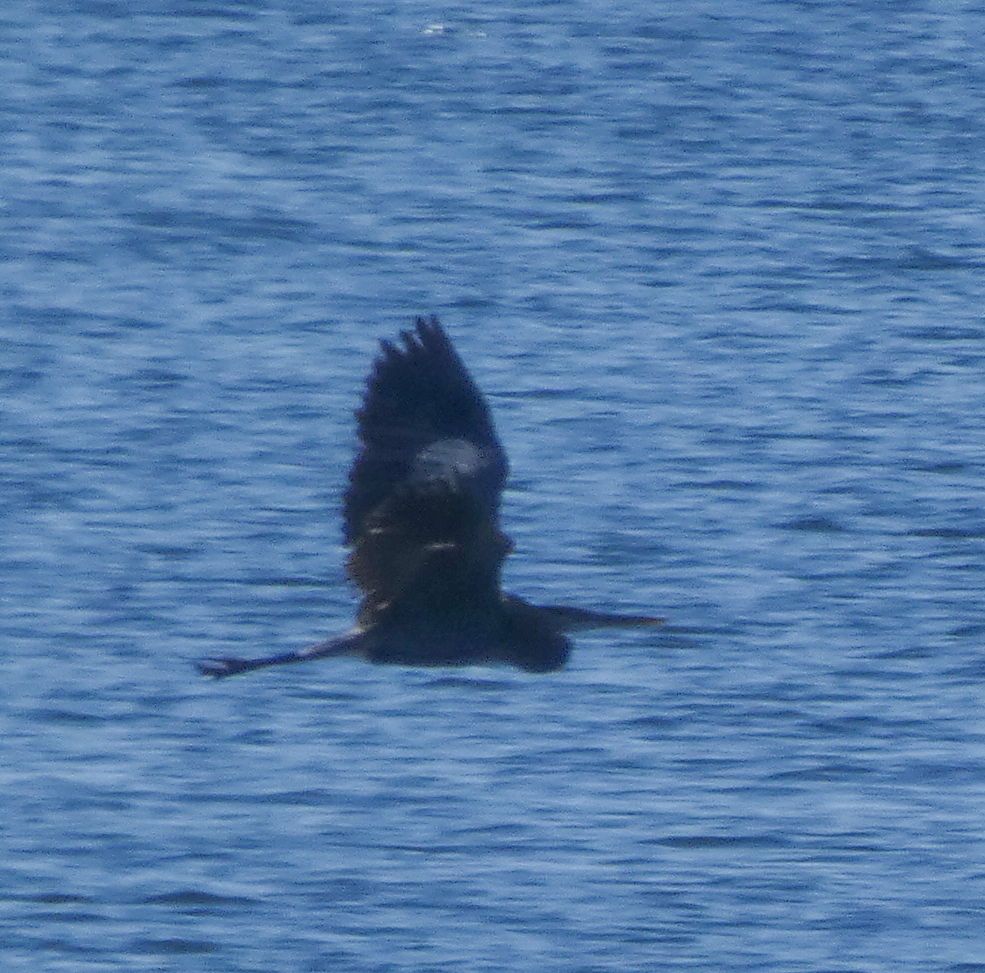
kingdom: Animalia
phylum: Chordata
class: Aves
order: Pelecaniformes
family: Ardeidae
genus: Ardea
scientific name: Ardea herodias
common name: Great blue heron
